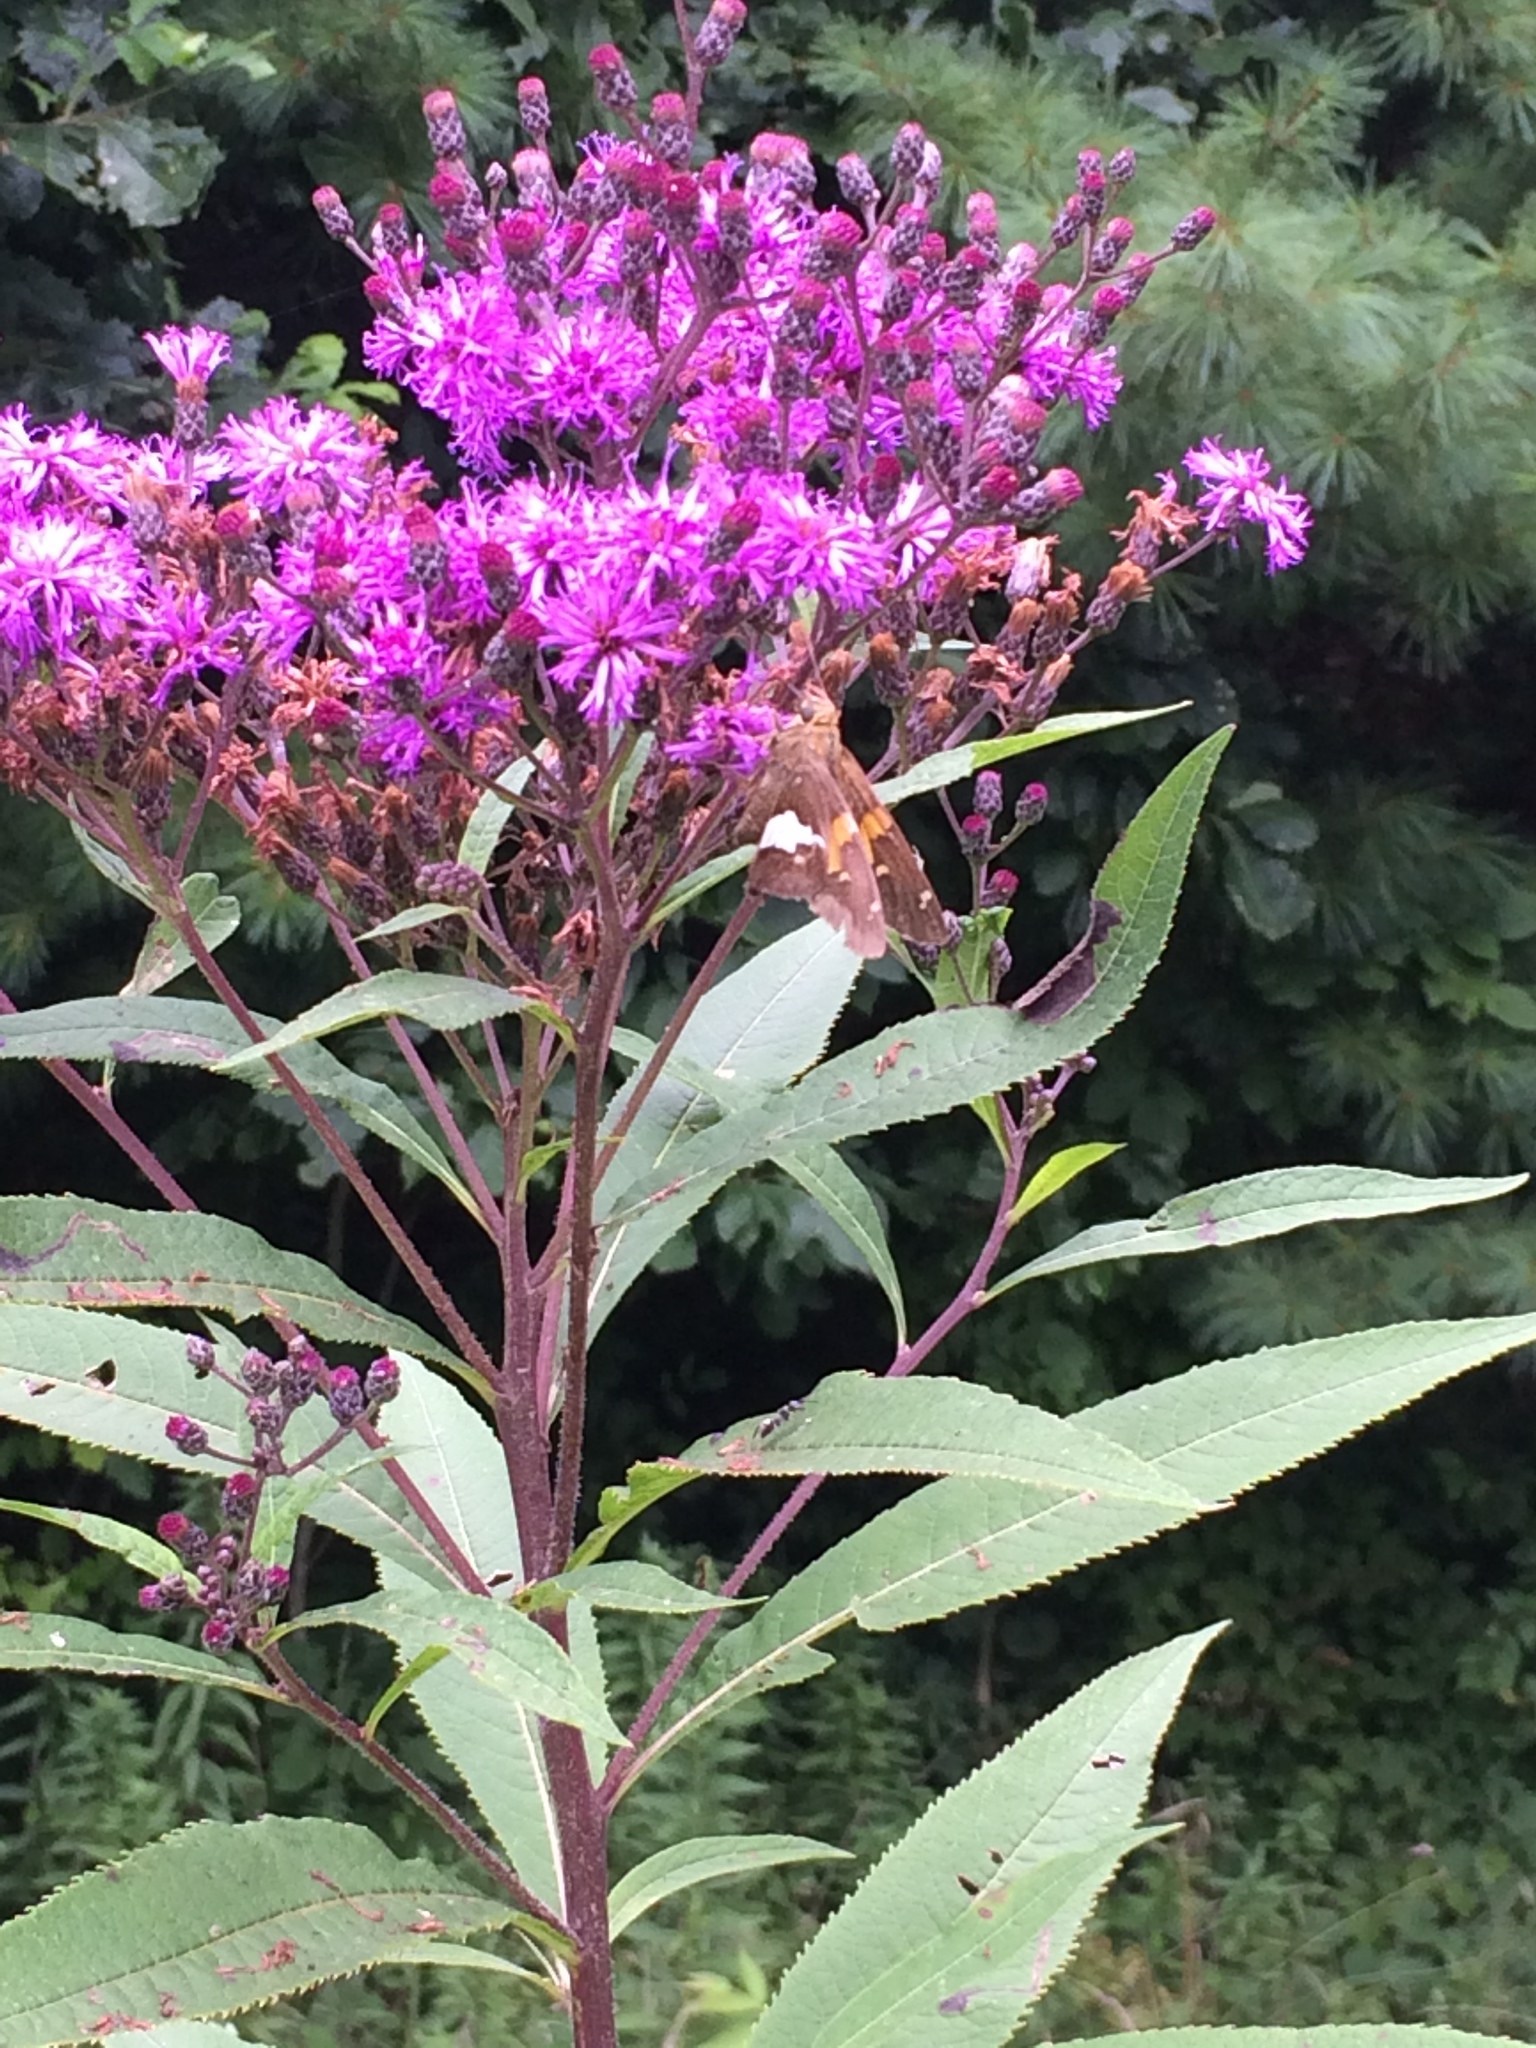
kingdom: Animalia
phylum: Arthropoda
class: Insecta
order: Lepidoptera
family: Hesperiidae
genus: Epargyreus
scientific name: Epargyreus clarus
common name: Silver-spotted skipper
